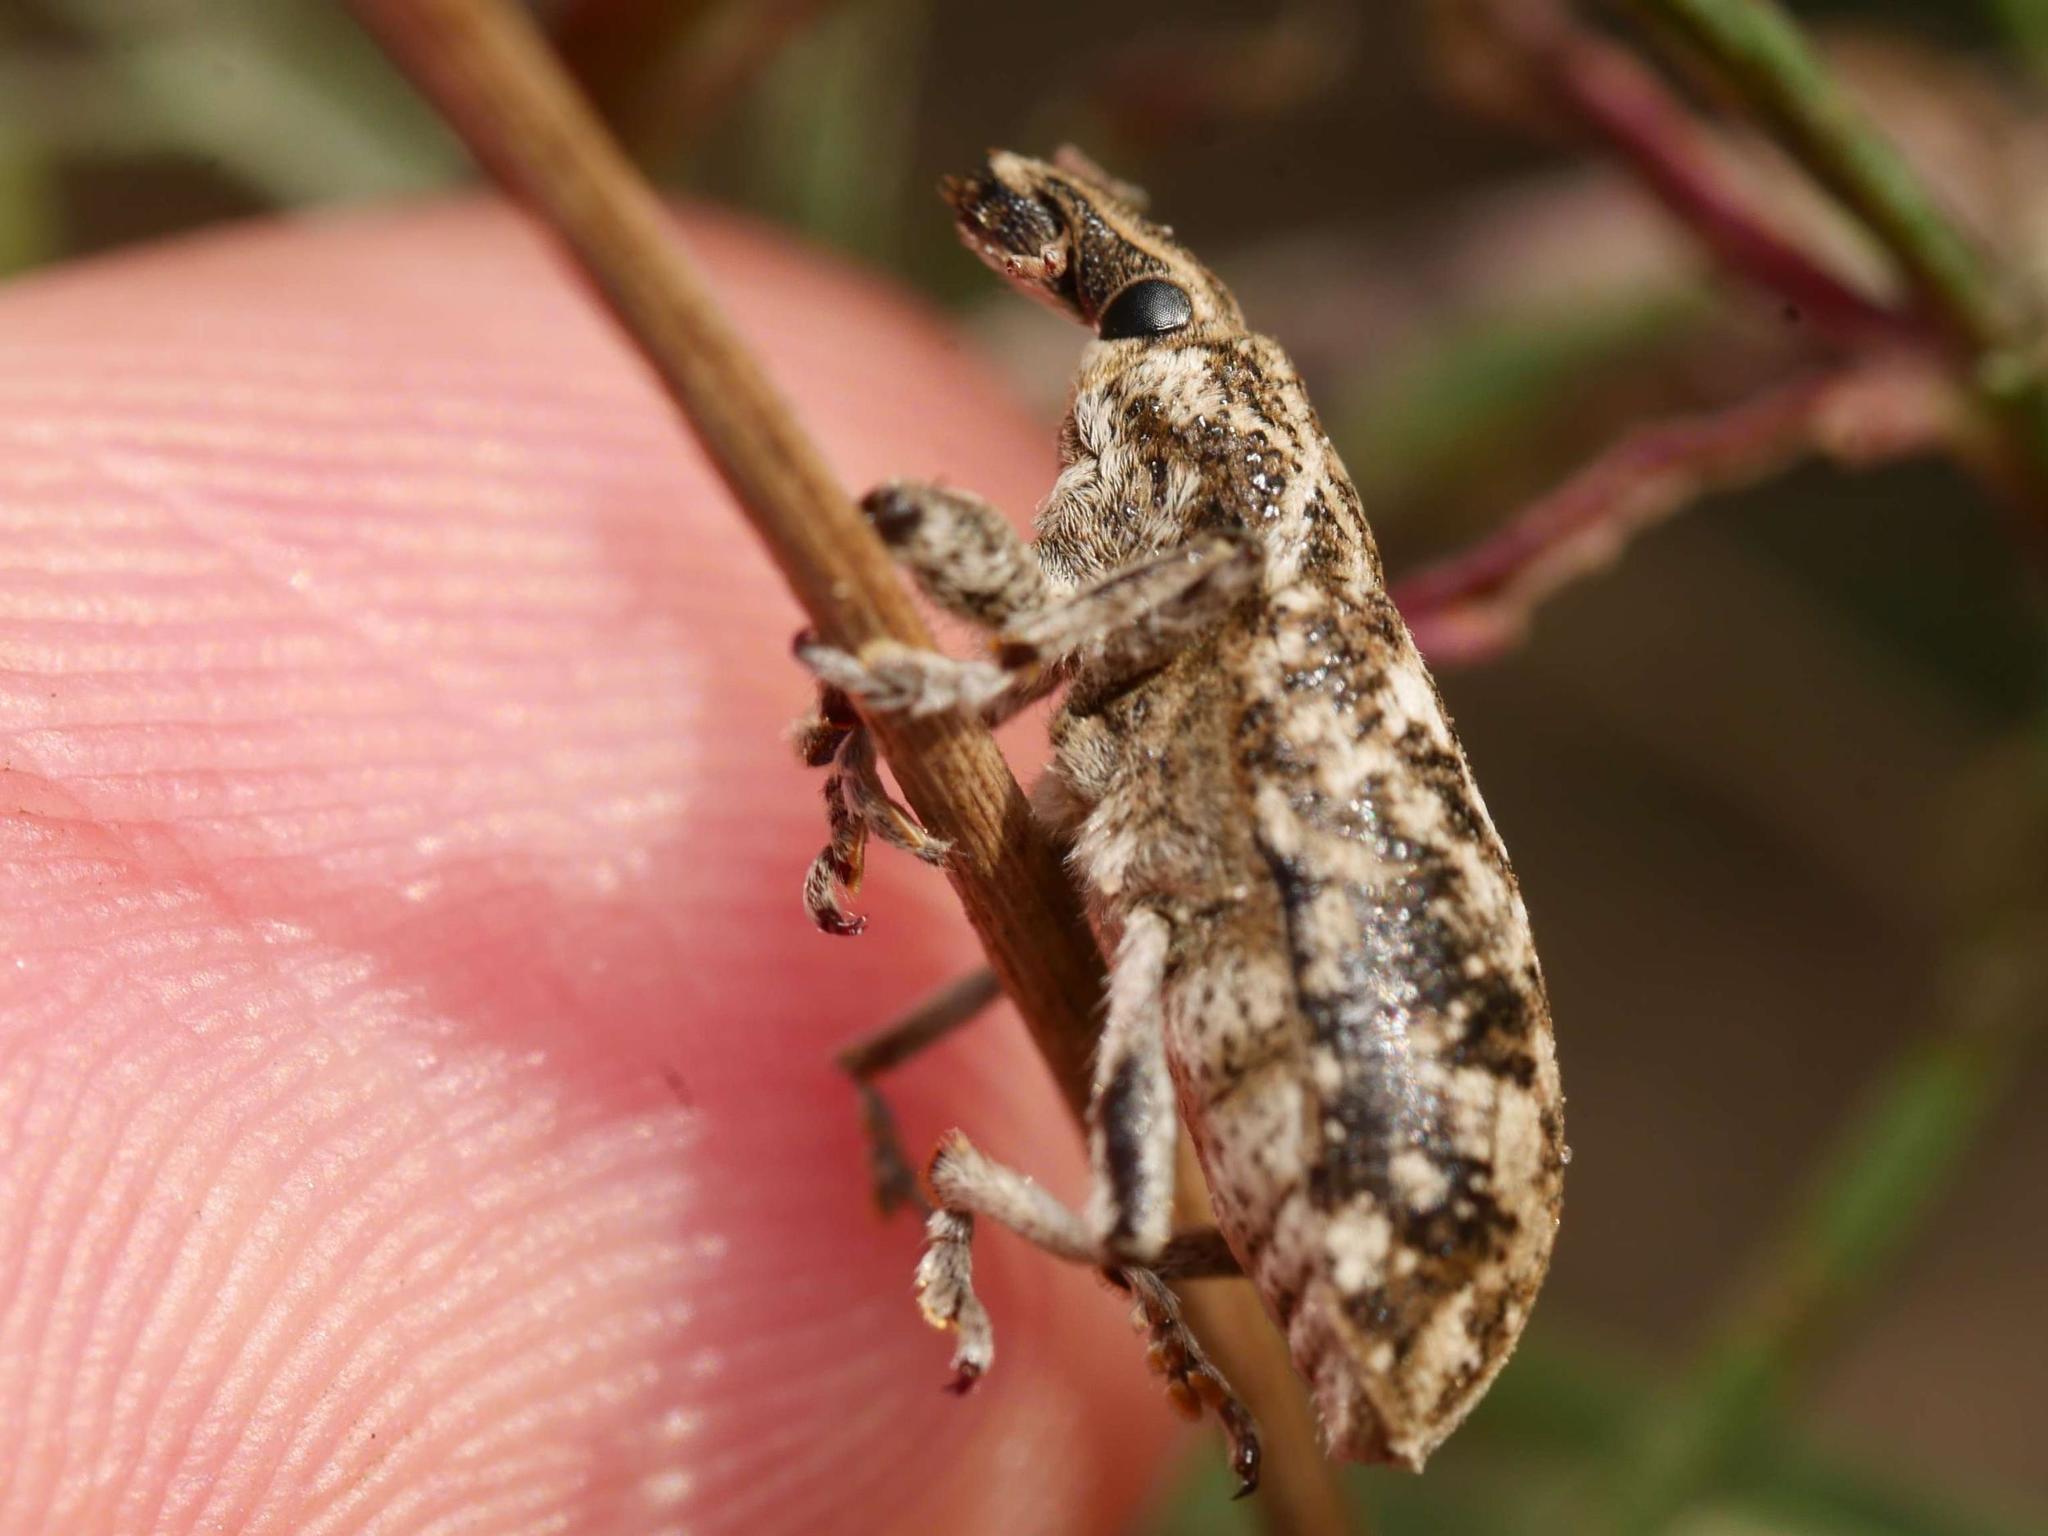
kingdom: Animalia
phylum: Arthropoda
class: Insecta
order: Coleoptera
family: Curculionidae
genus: Cyphocleonus
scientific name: Cyphocleonus dealbatus
